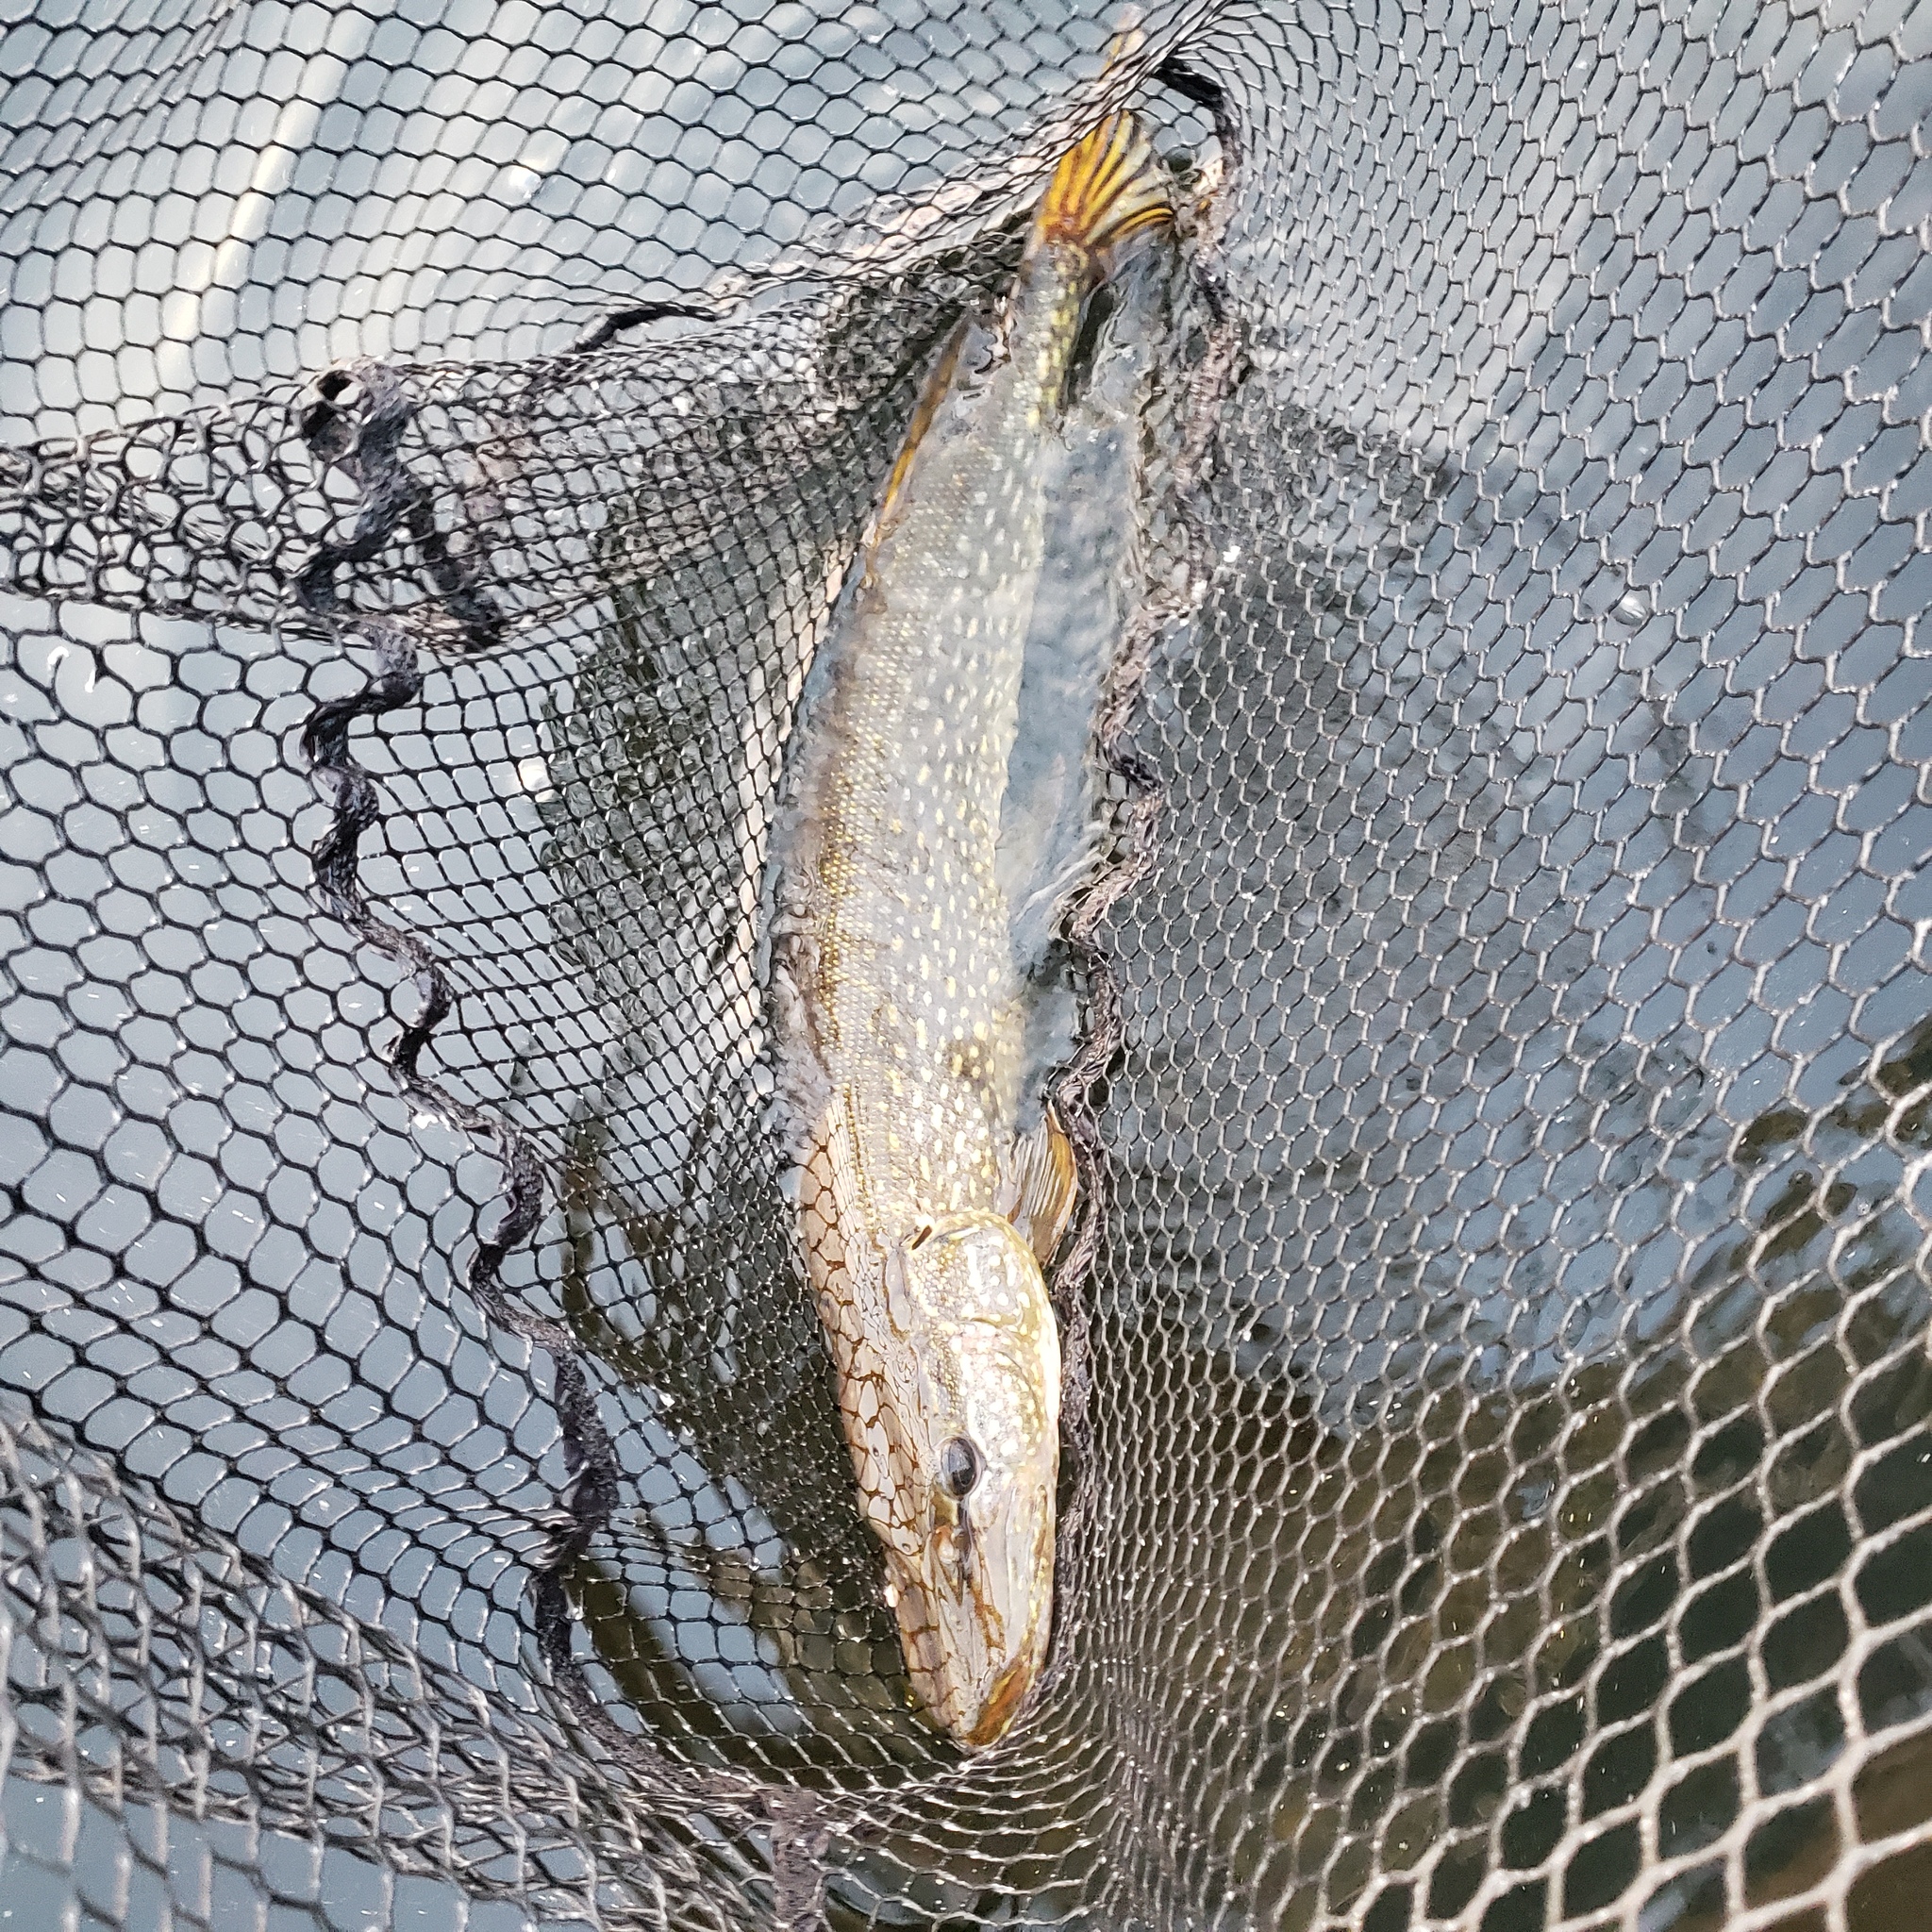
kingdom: Animalia
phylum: Chordata
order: Esociformes
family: Esocidae
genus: Esox
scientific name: Esox lucius
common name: Northern pike
